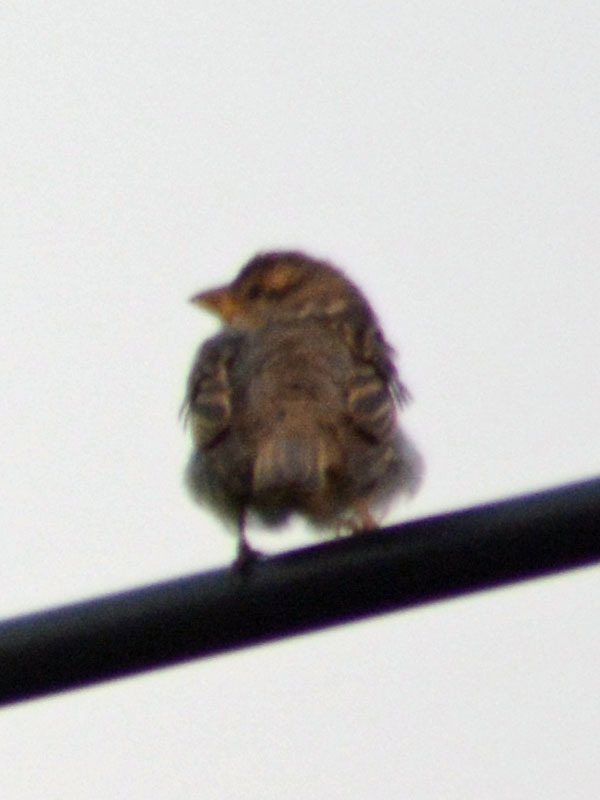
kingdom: Animalia
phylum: Chordata
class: Aves
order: Passeriformes
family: Passeridae
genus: Passer
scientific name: Passer domesticus
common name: House sparrow
